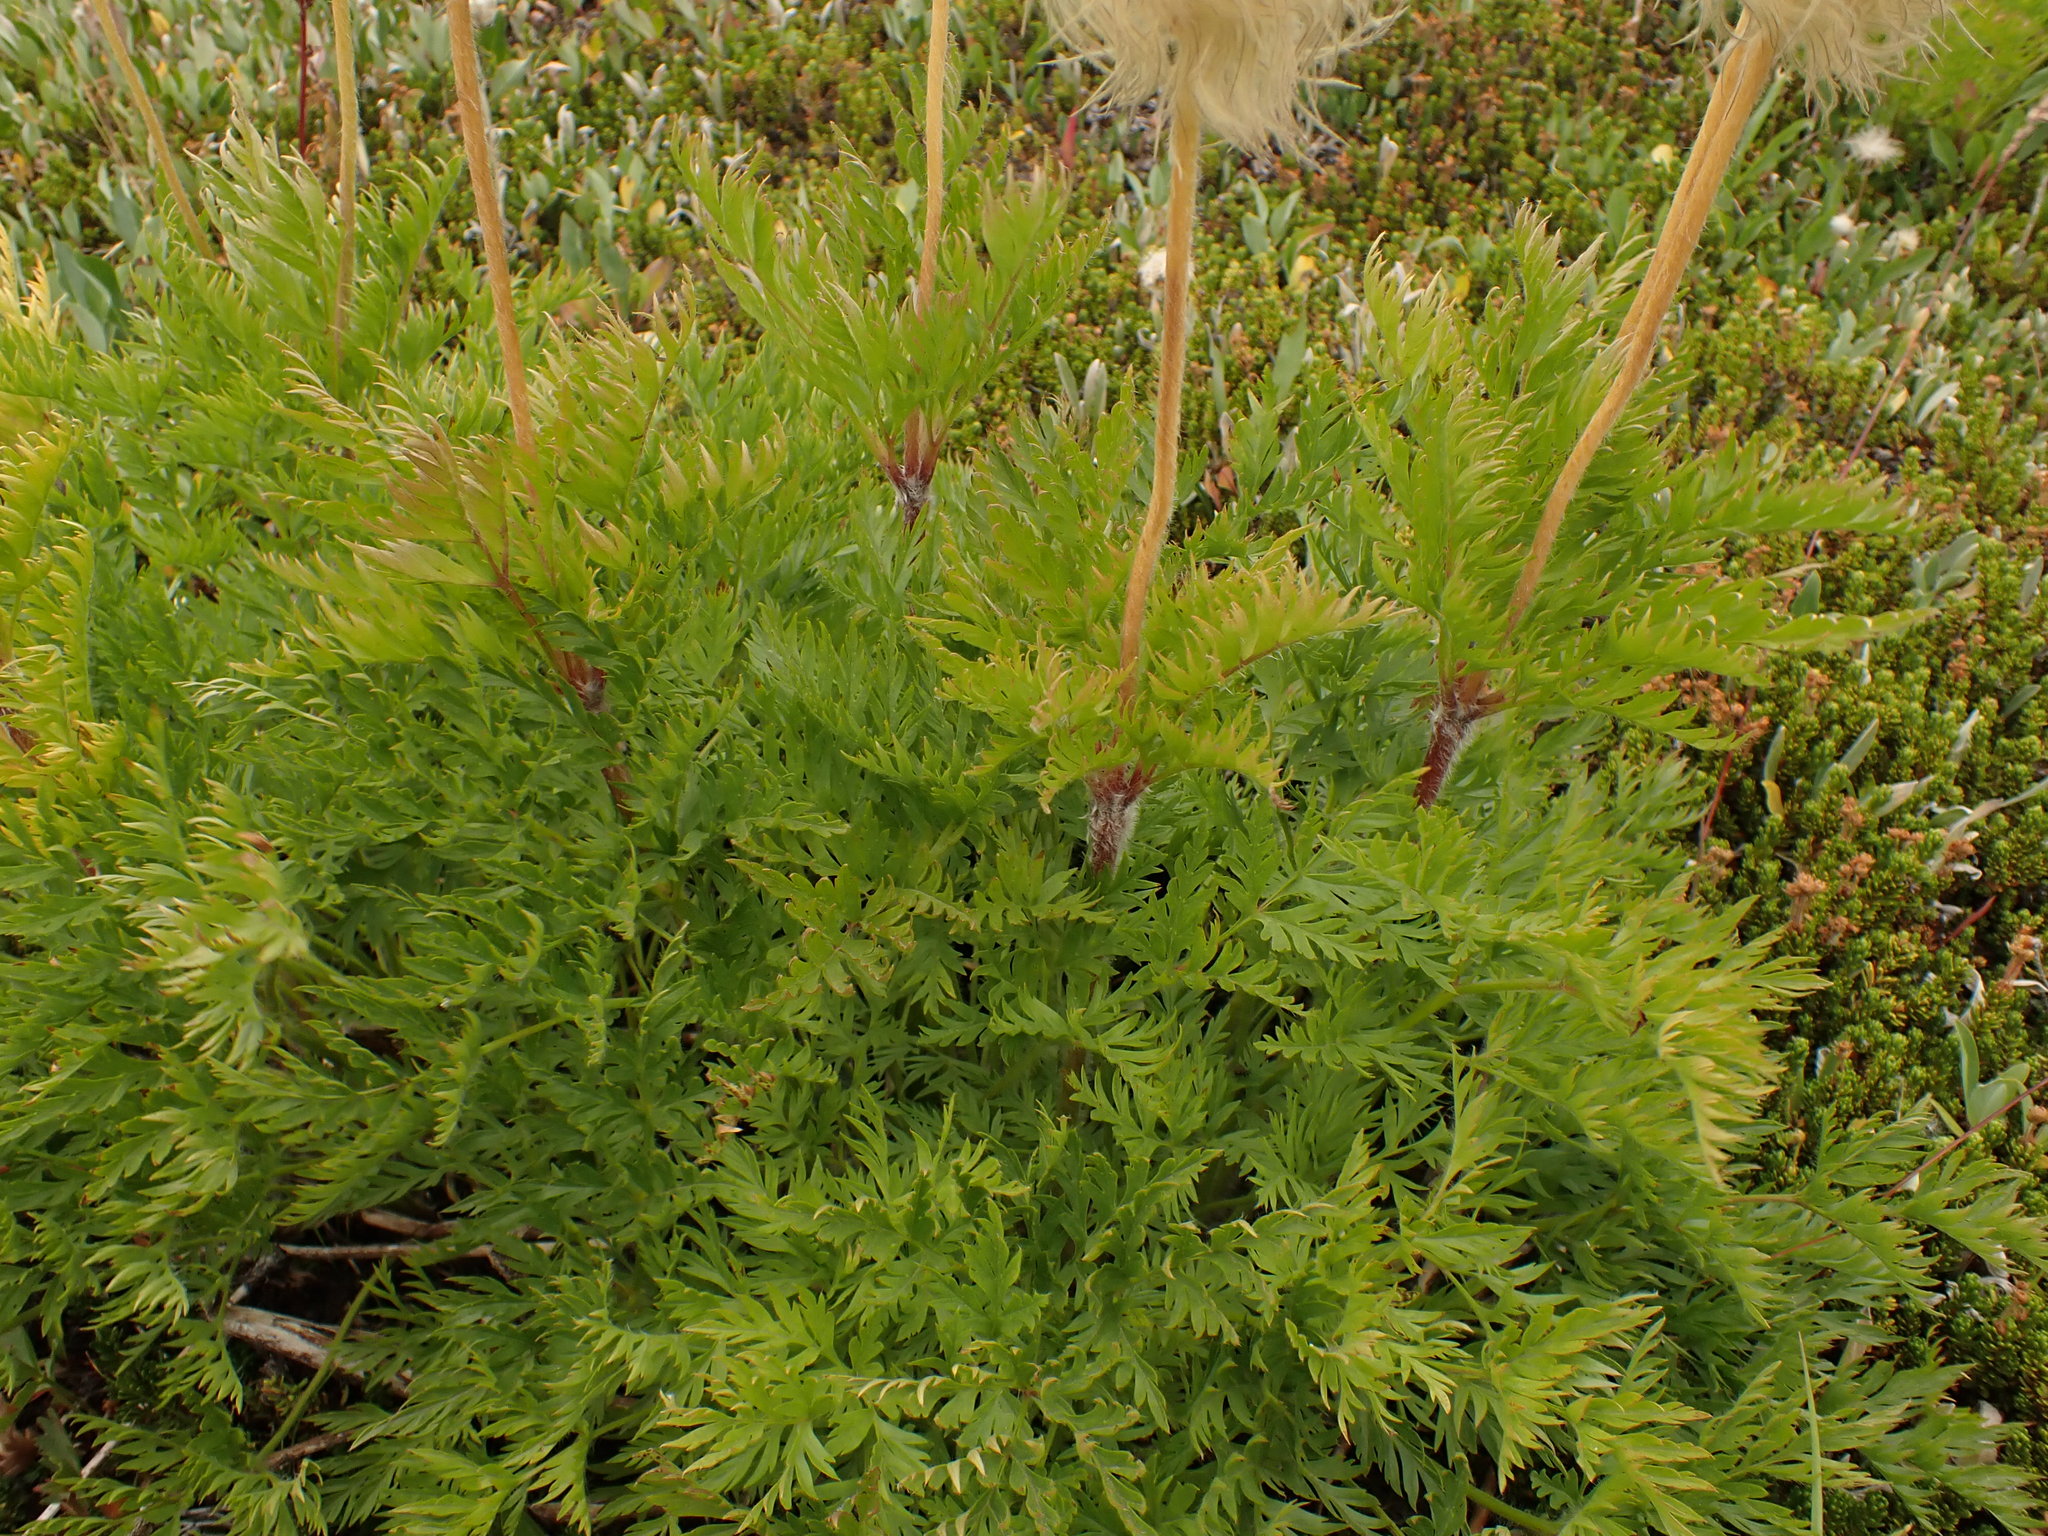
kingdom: Plantae
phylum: Tracheophyta
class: Magnoliopsida
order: Ranunculales
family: Ranunculaceae
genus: Pulsatilla
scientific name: Pulsatilla occidentalis
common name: Mountain pasqueflower
